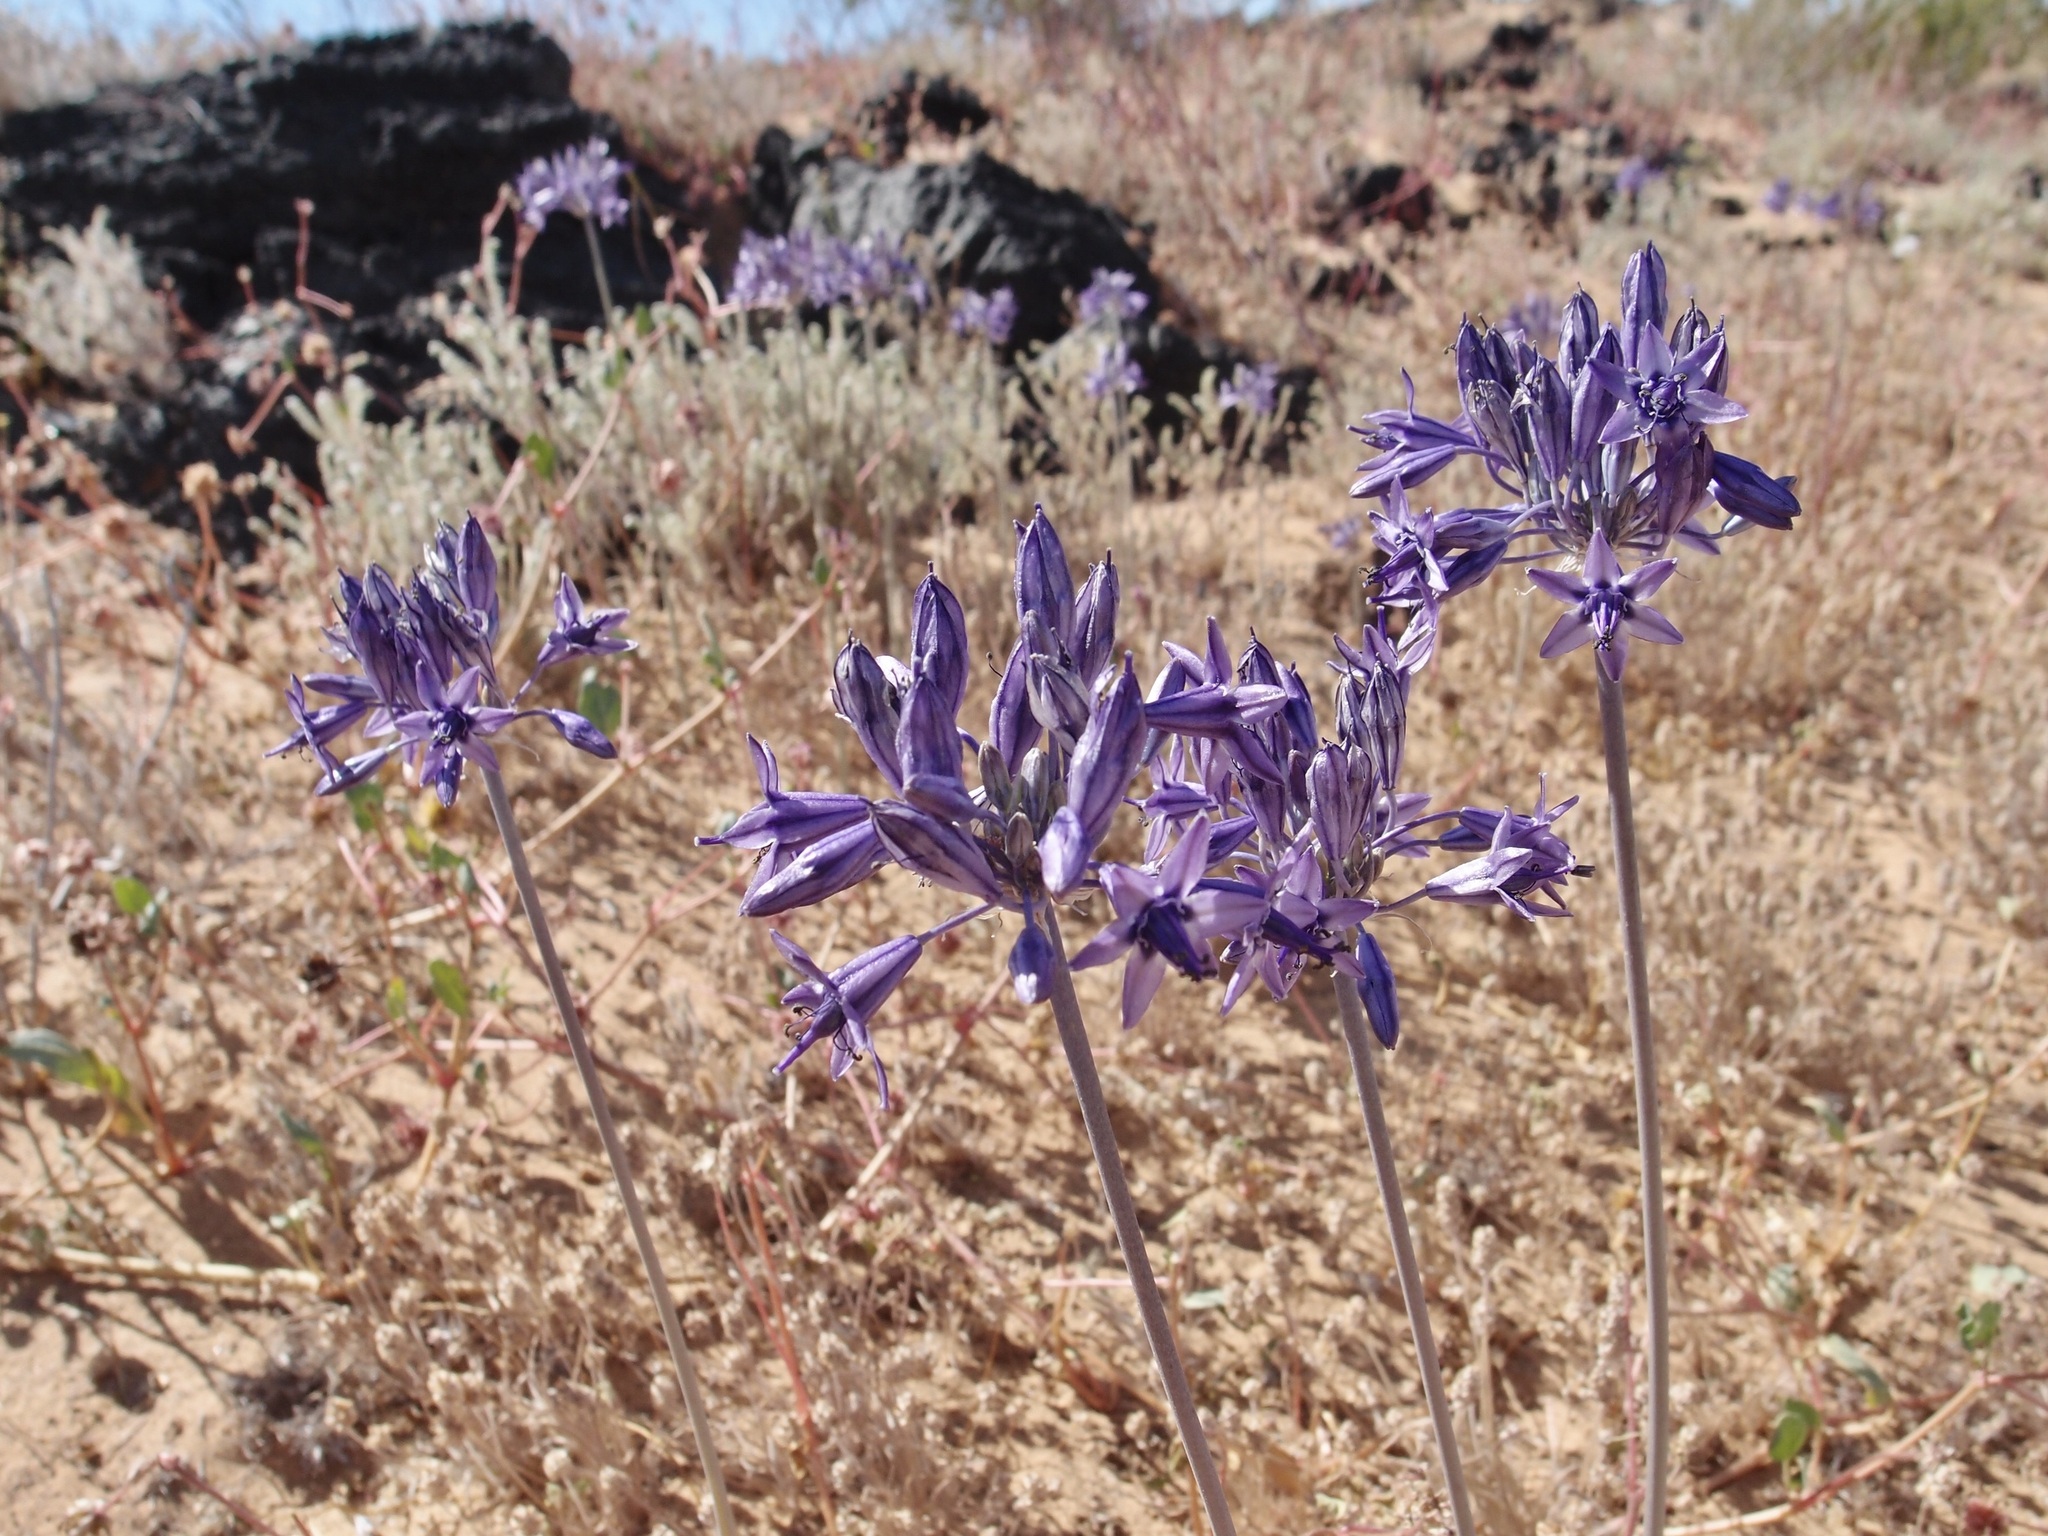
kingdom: Plantae
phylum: Tracheophyta
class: Liliopsida
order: Asparagales
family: Asparagaceae
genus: Triteleiopsis
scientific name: Triteleiopsis palmeri
